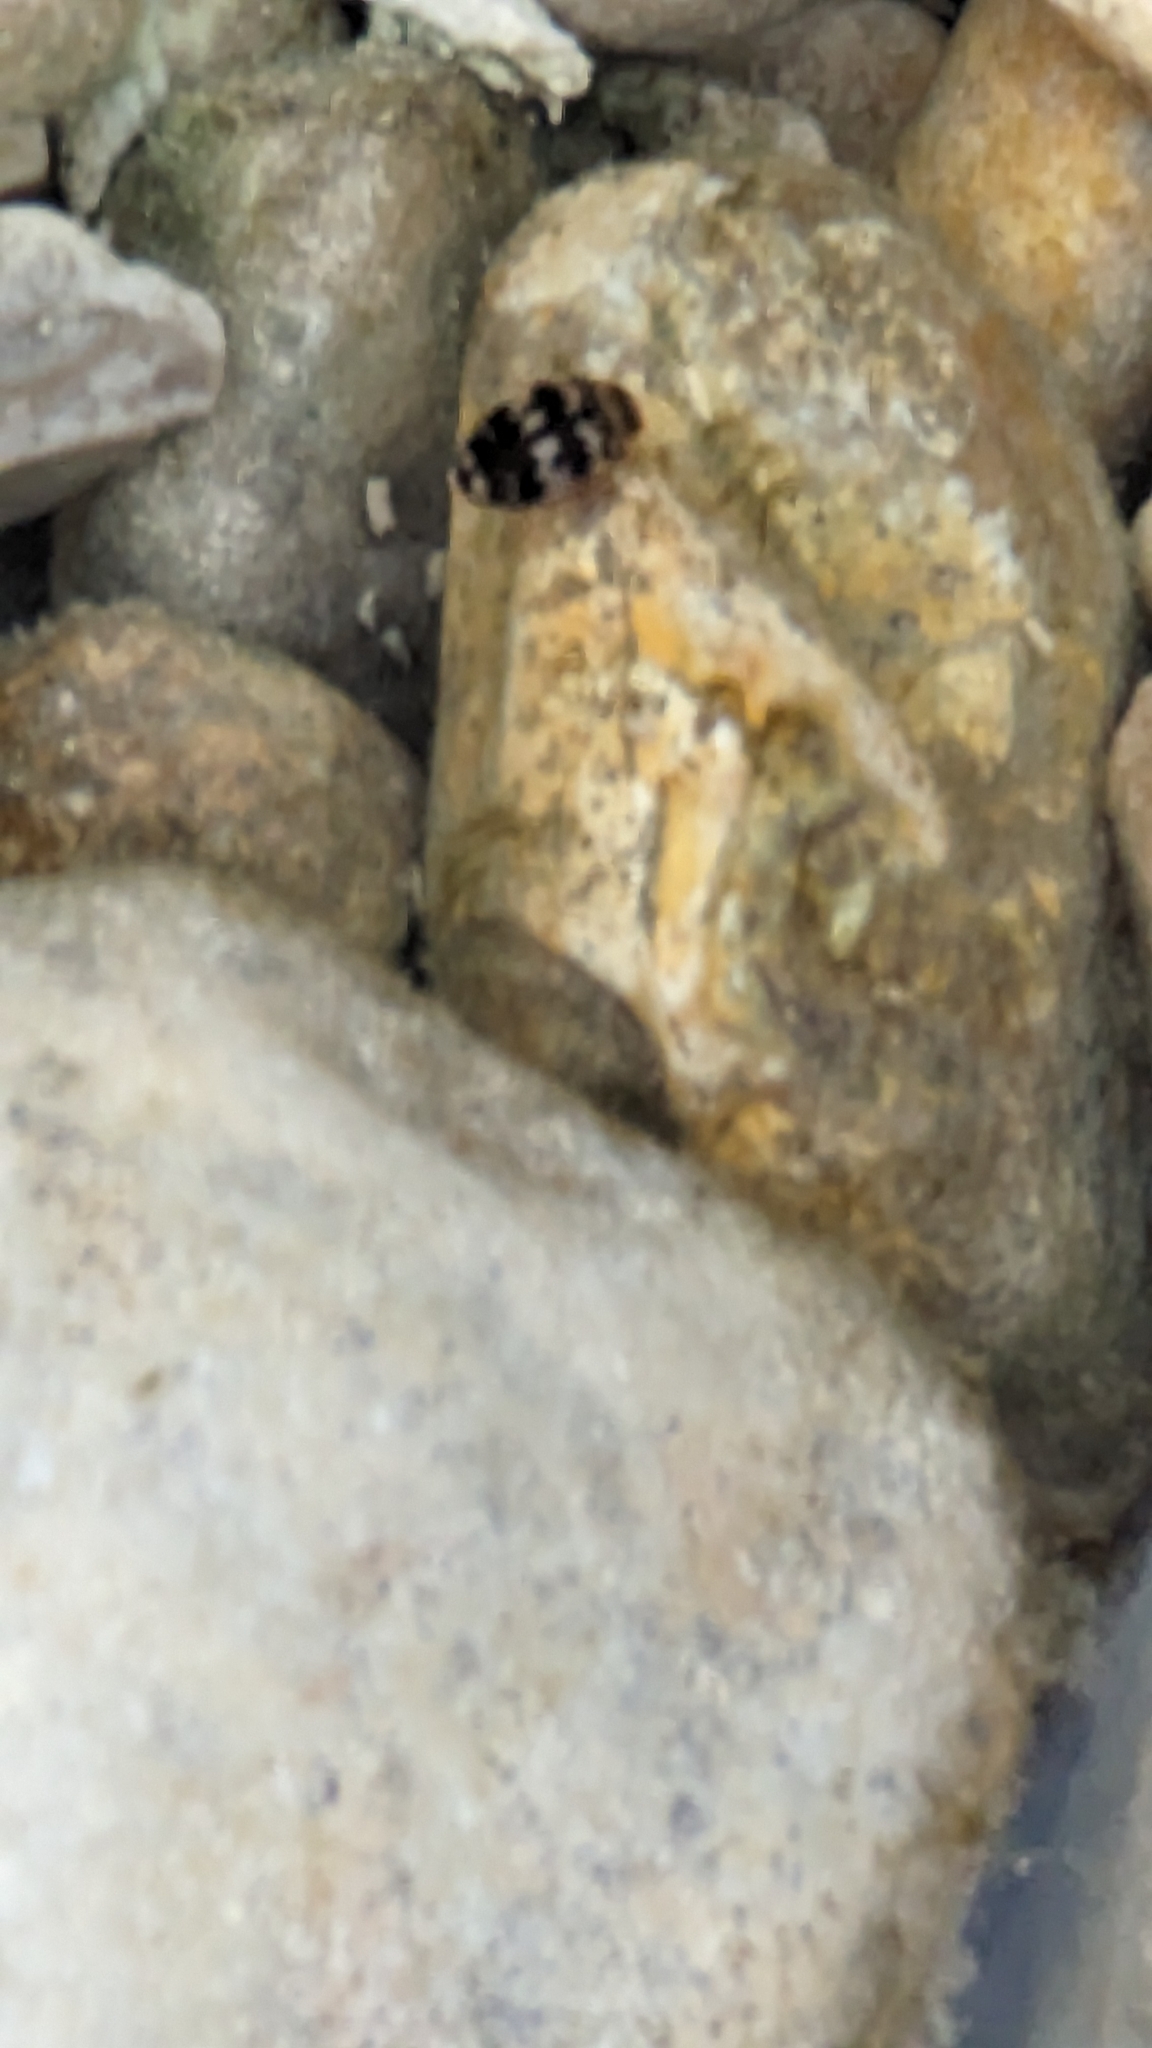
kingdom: Animalia
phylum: Arthropoda
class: Insecta
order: Coleoptera
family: Dytiscidae
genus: Laccophilus
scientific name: Laccophilus pictus
